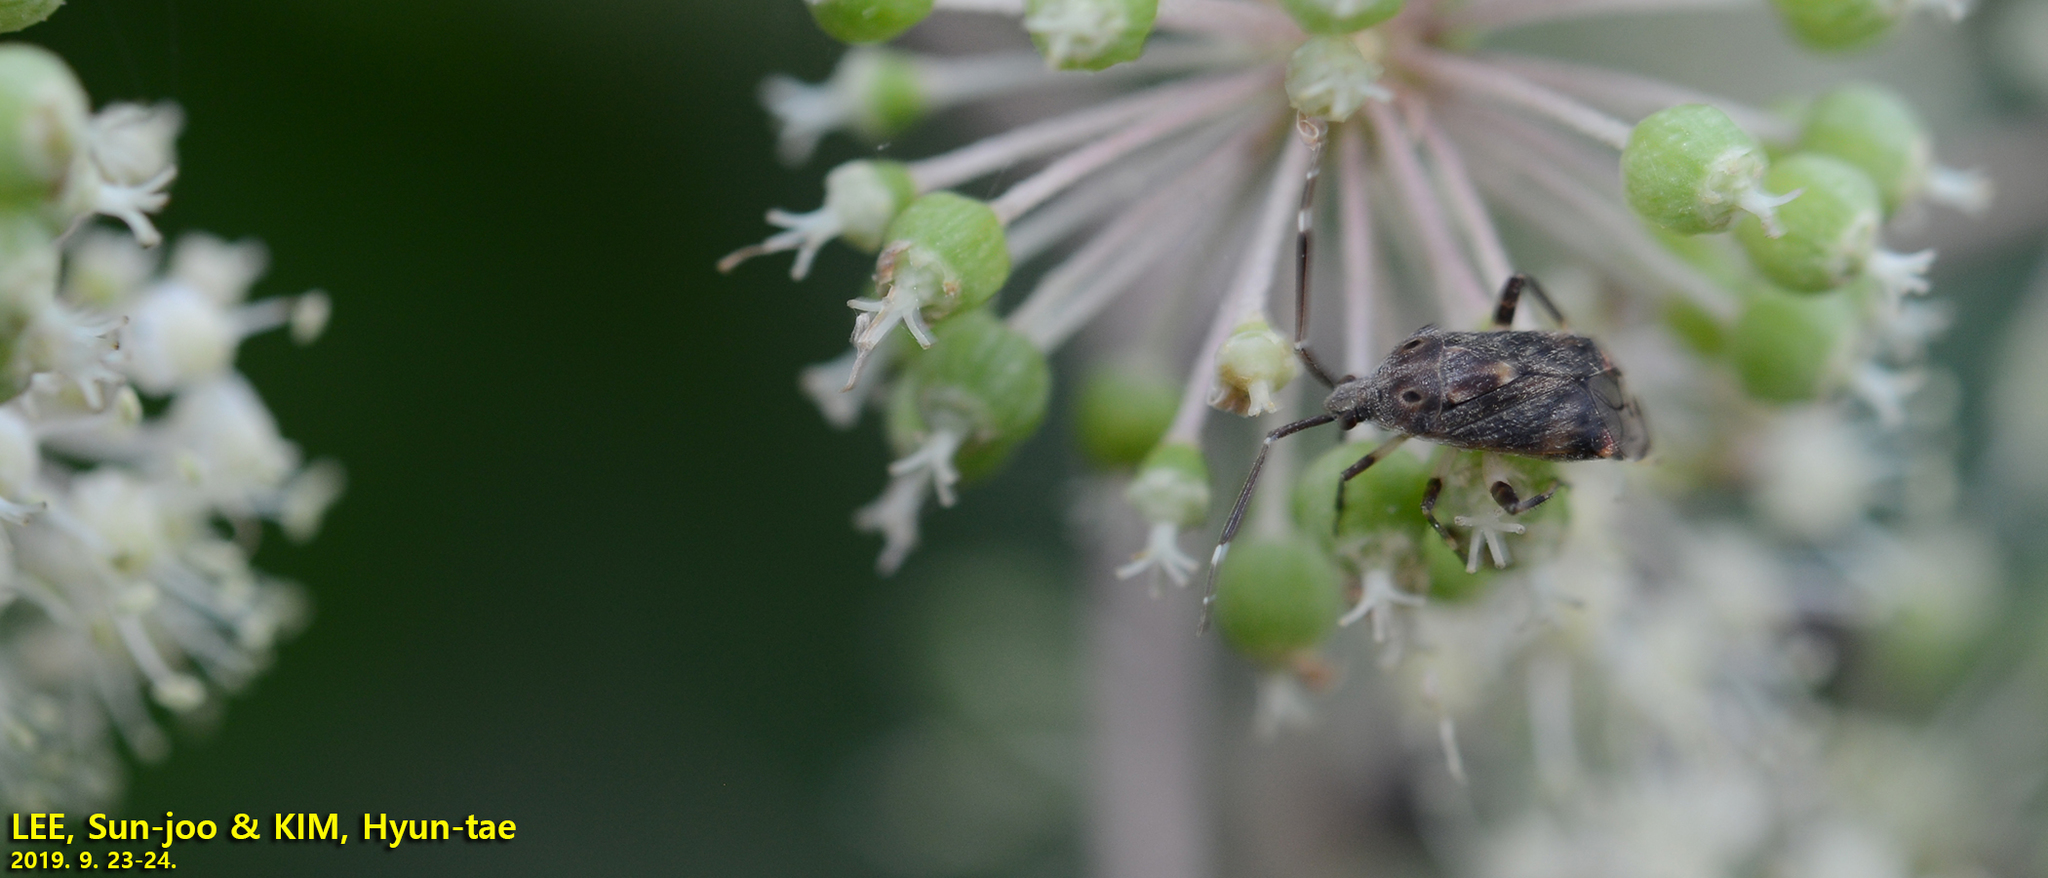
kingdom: Animalia
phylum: Arthropoda
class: Insecta
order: Hemiptera
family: Miridae
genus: Eurystylus
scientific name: Eurystylus coelestialium
